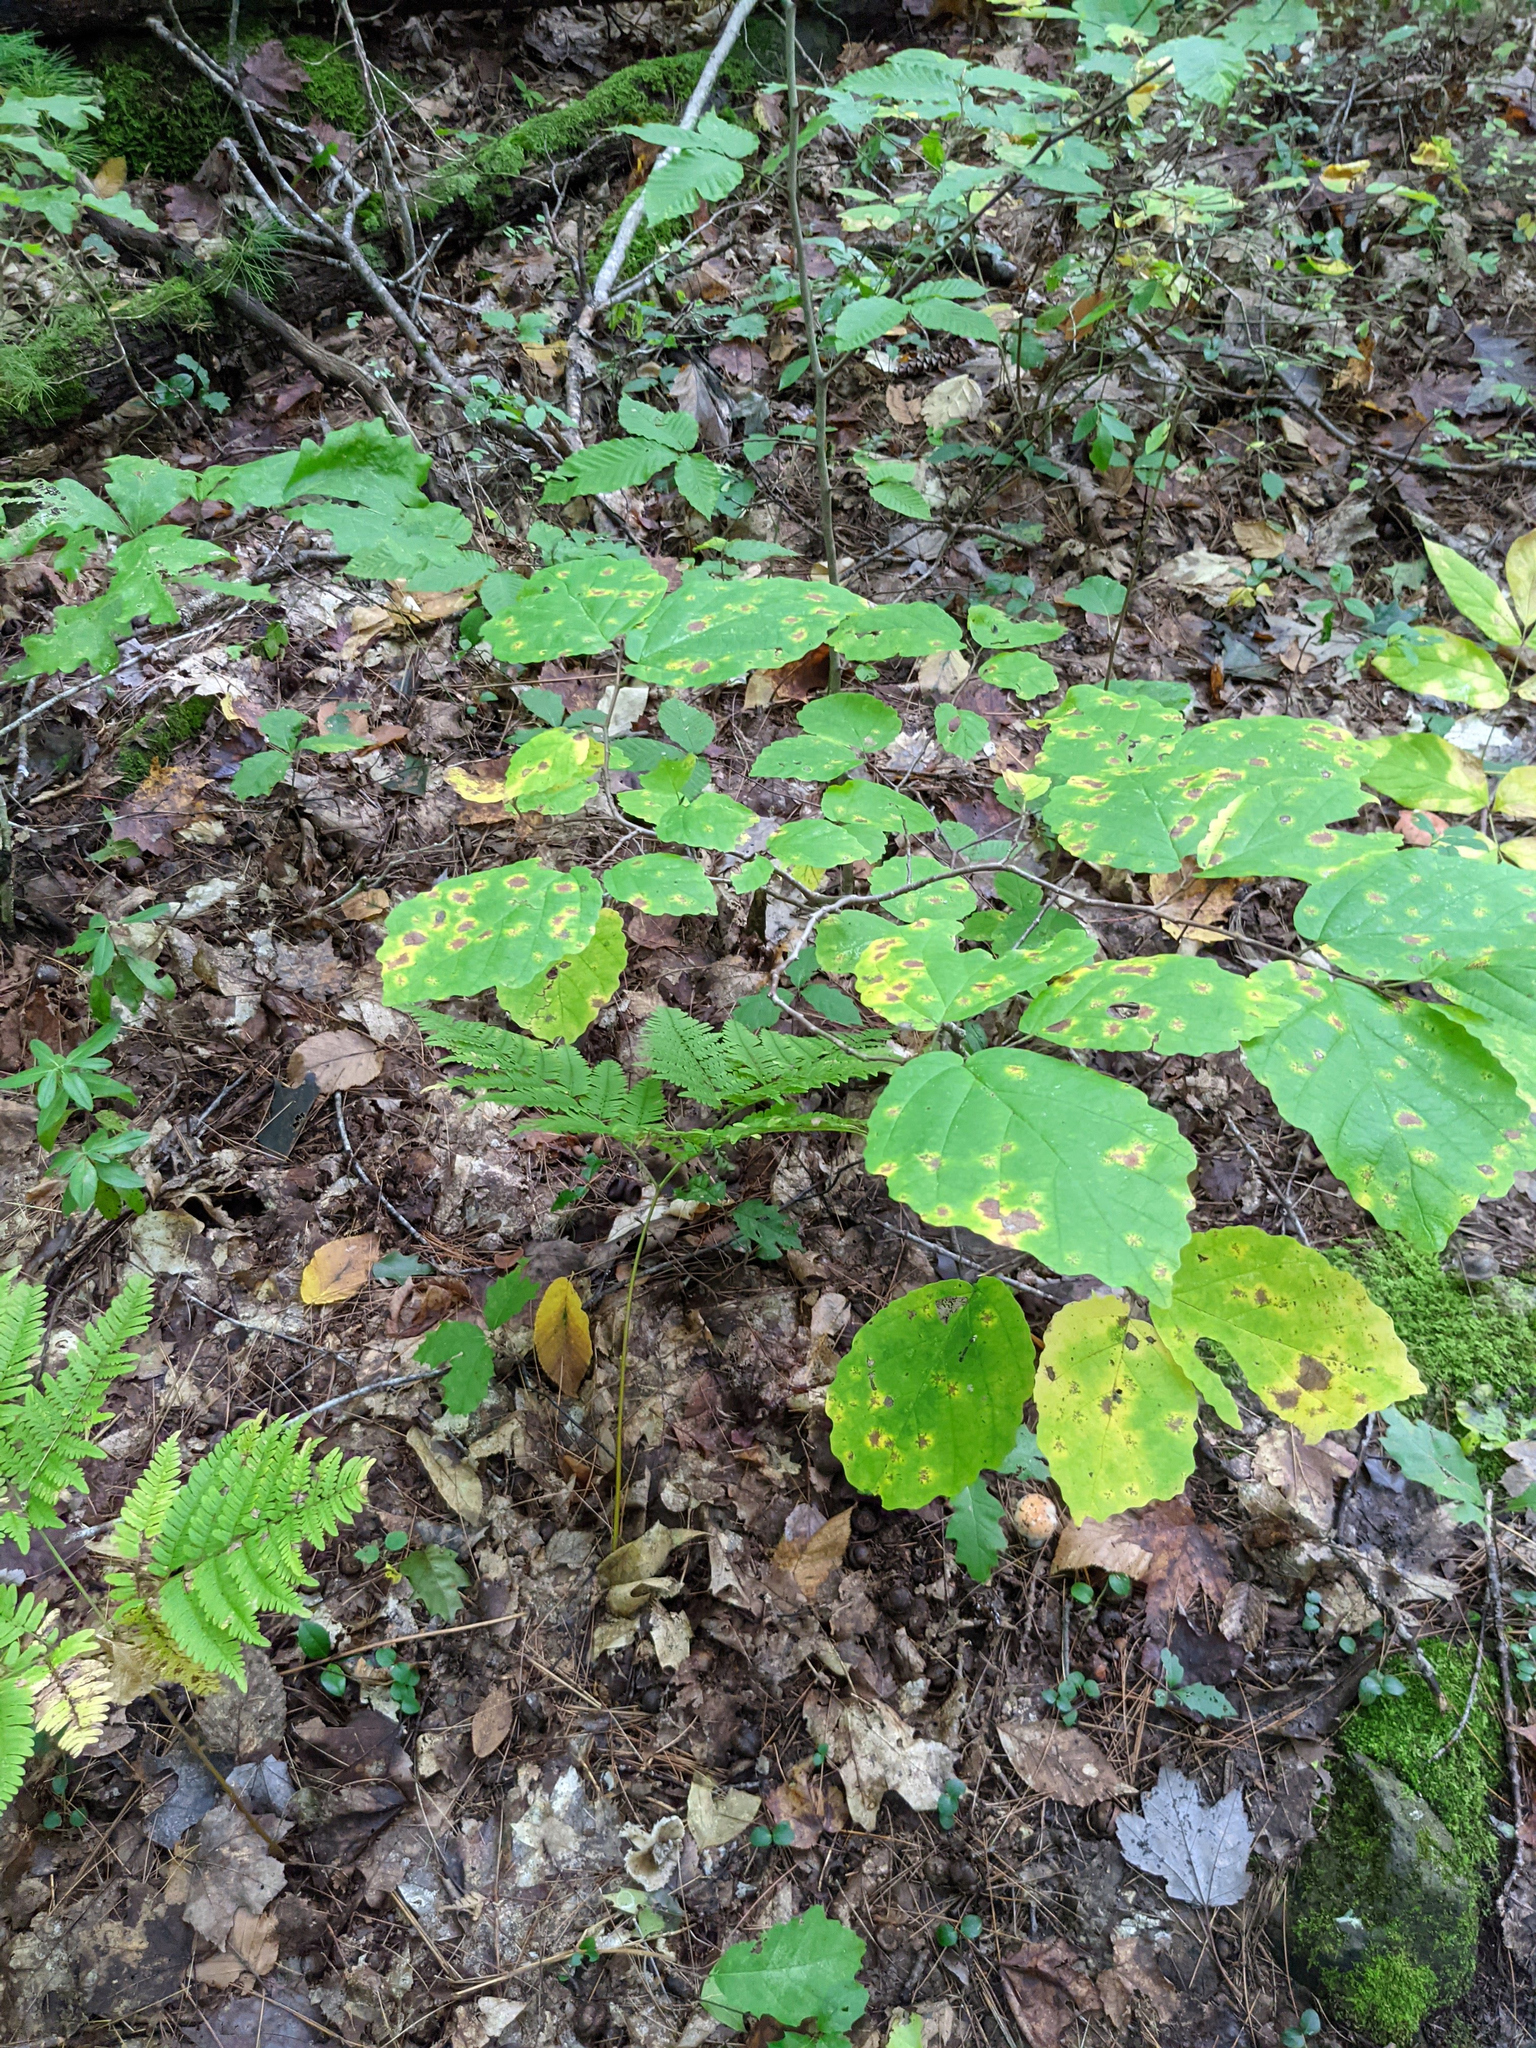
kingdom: Plantae
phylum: Tracheophyta
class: Magnoliopsida
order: Saxifragales
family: Hamamelidaceae
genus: Hamamelis
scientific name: Hamamelis virginiana
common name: Witch-hazel
